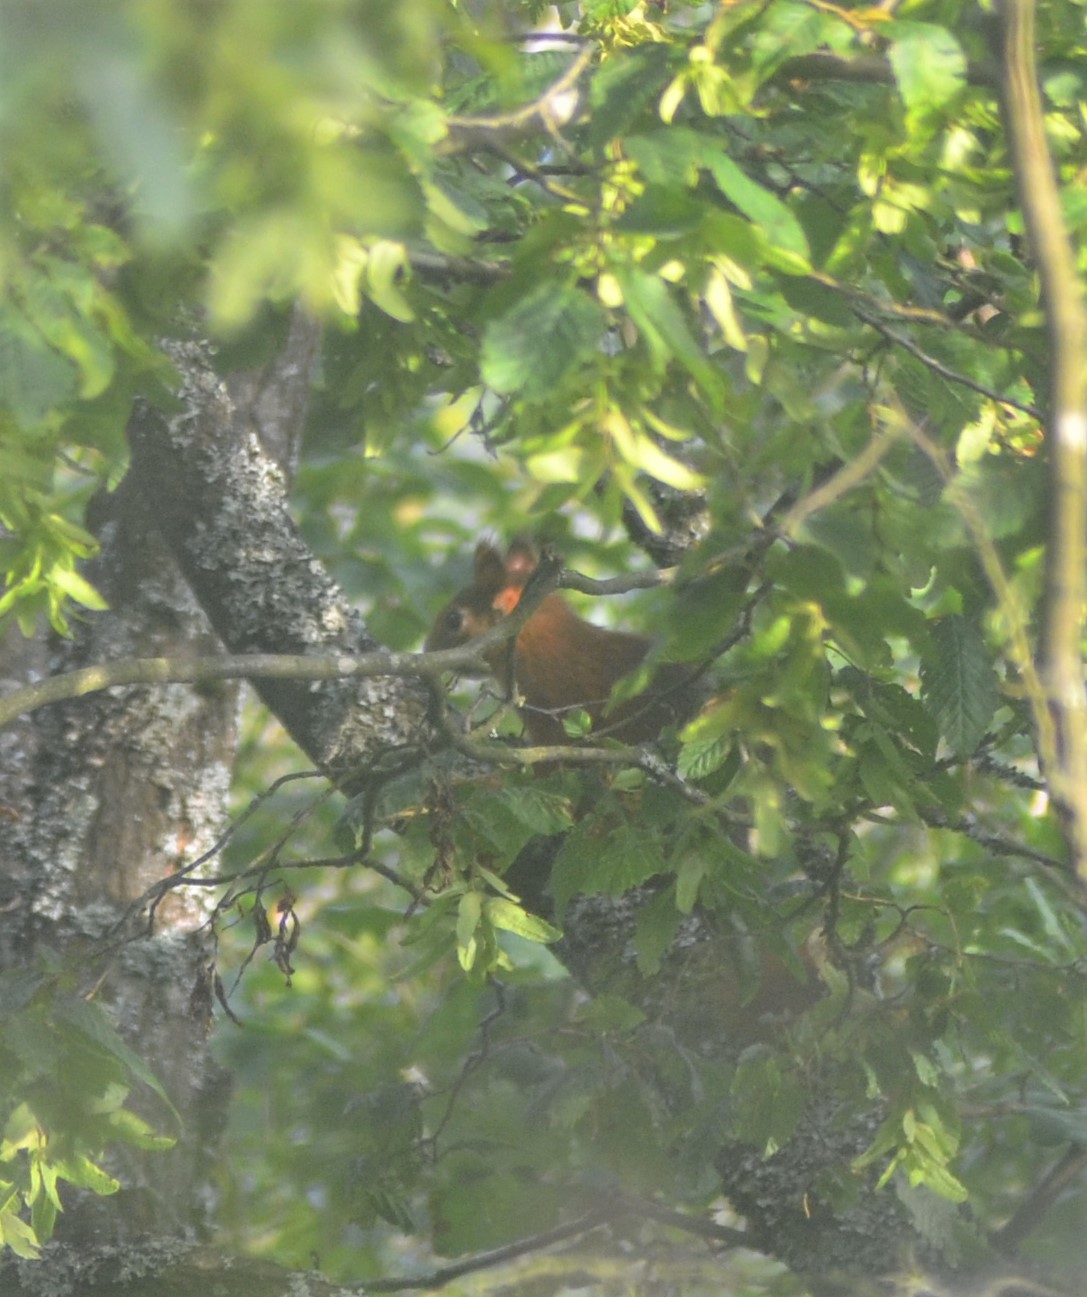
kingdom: Animalia
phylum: Chordata
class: Mammalia
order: Rodentia
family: Sciuridae
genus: Sciurus
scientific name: Sciurus vulgaris
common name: Eurasian red squirrel
